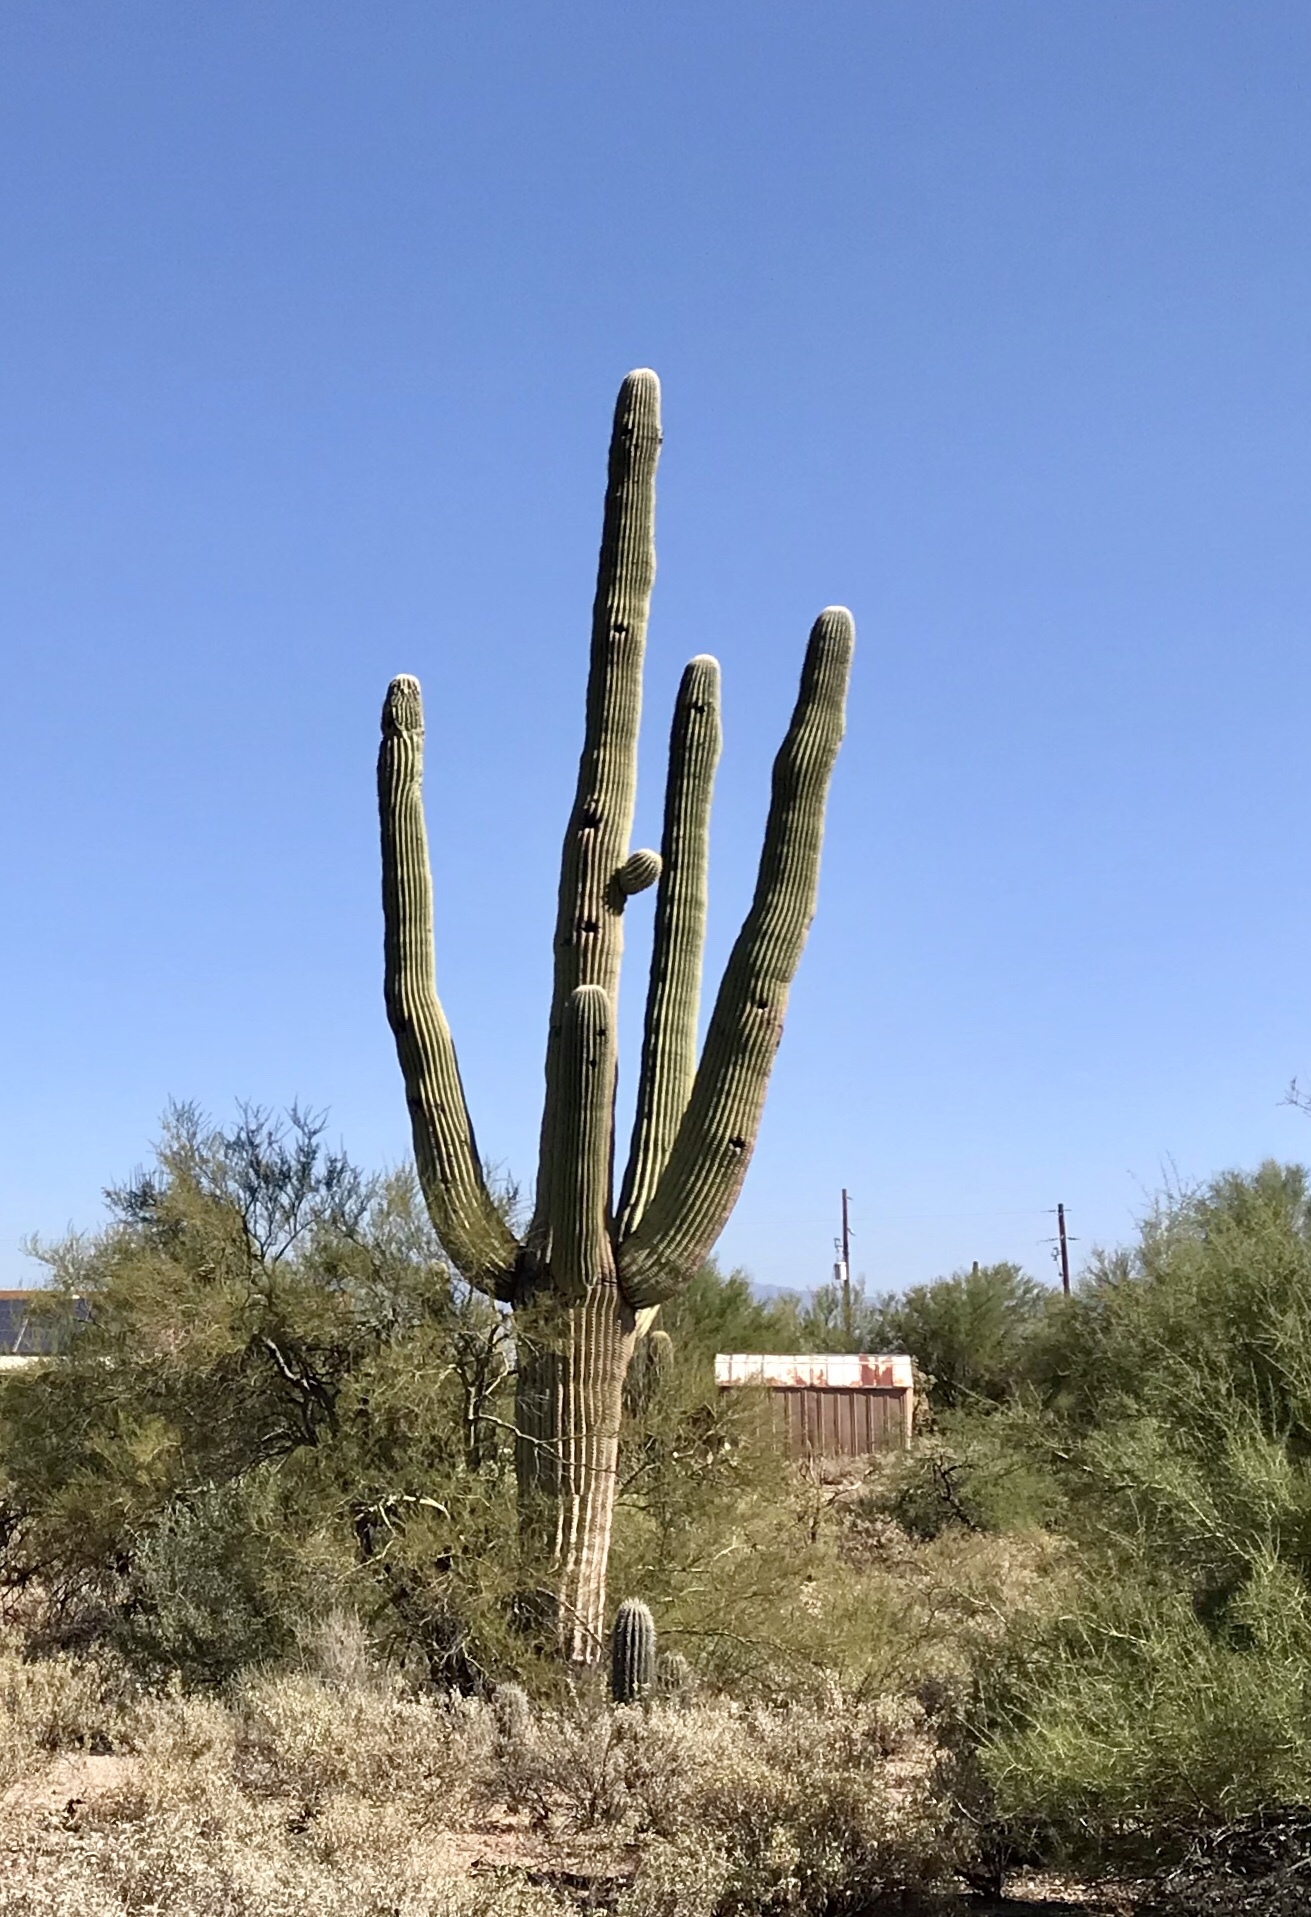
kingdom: Plantae
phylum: Tracheophyta
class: Magnoliopsida
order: Caryophyllales
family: Cactaceae
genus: Carnegiea
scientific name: Carnegiea gigantea
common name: Saguaro
